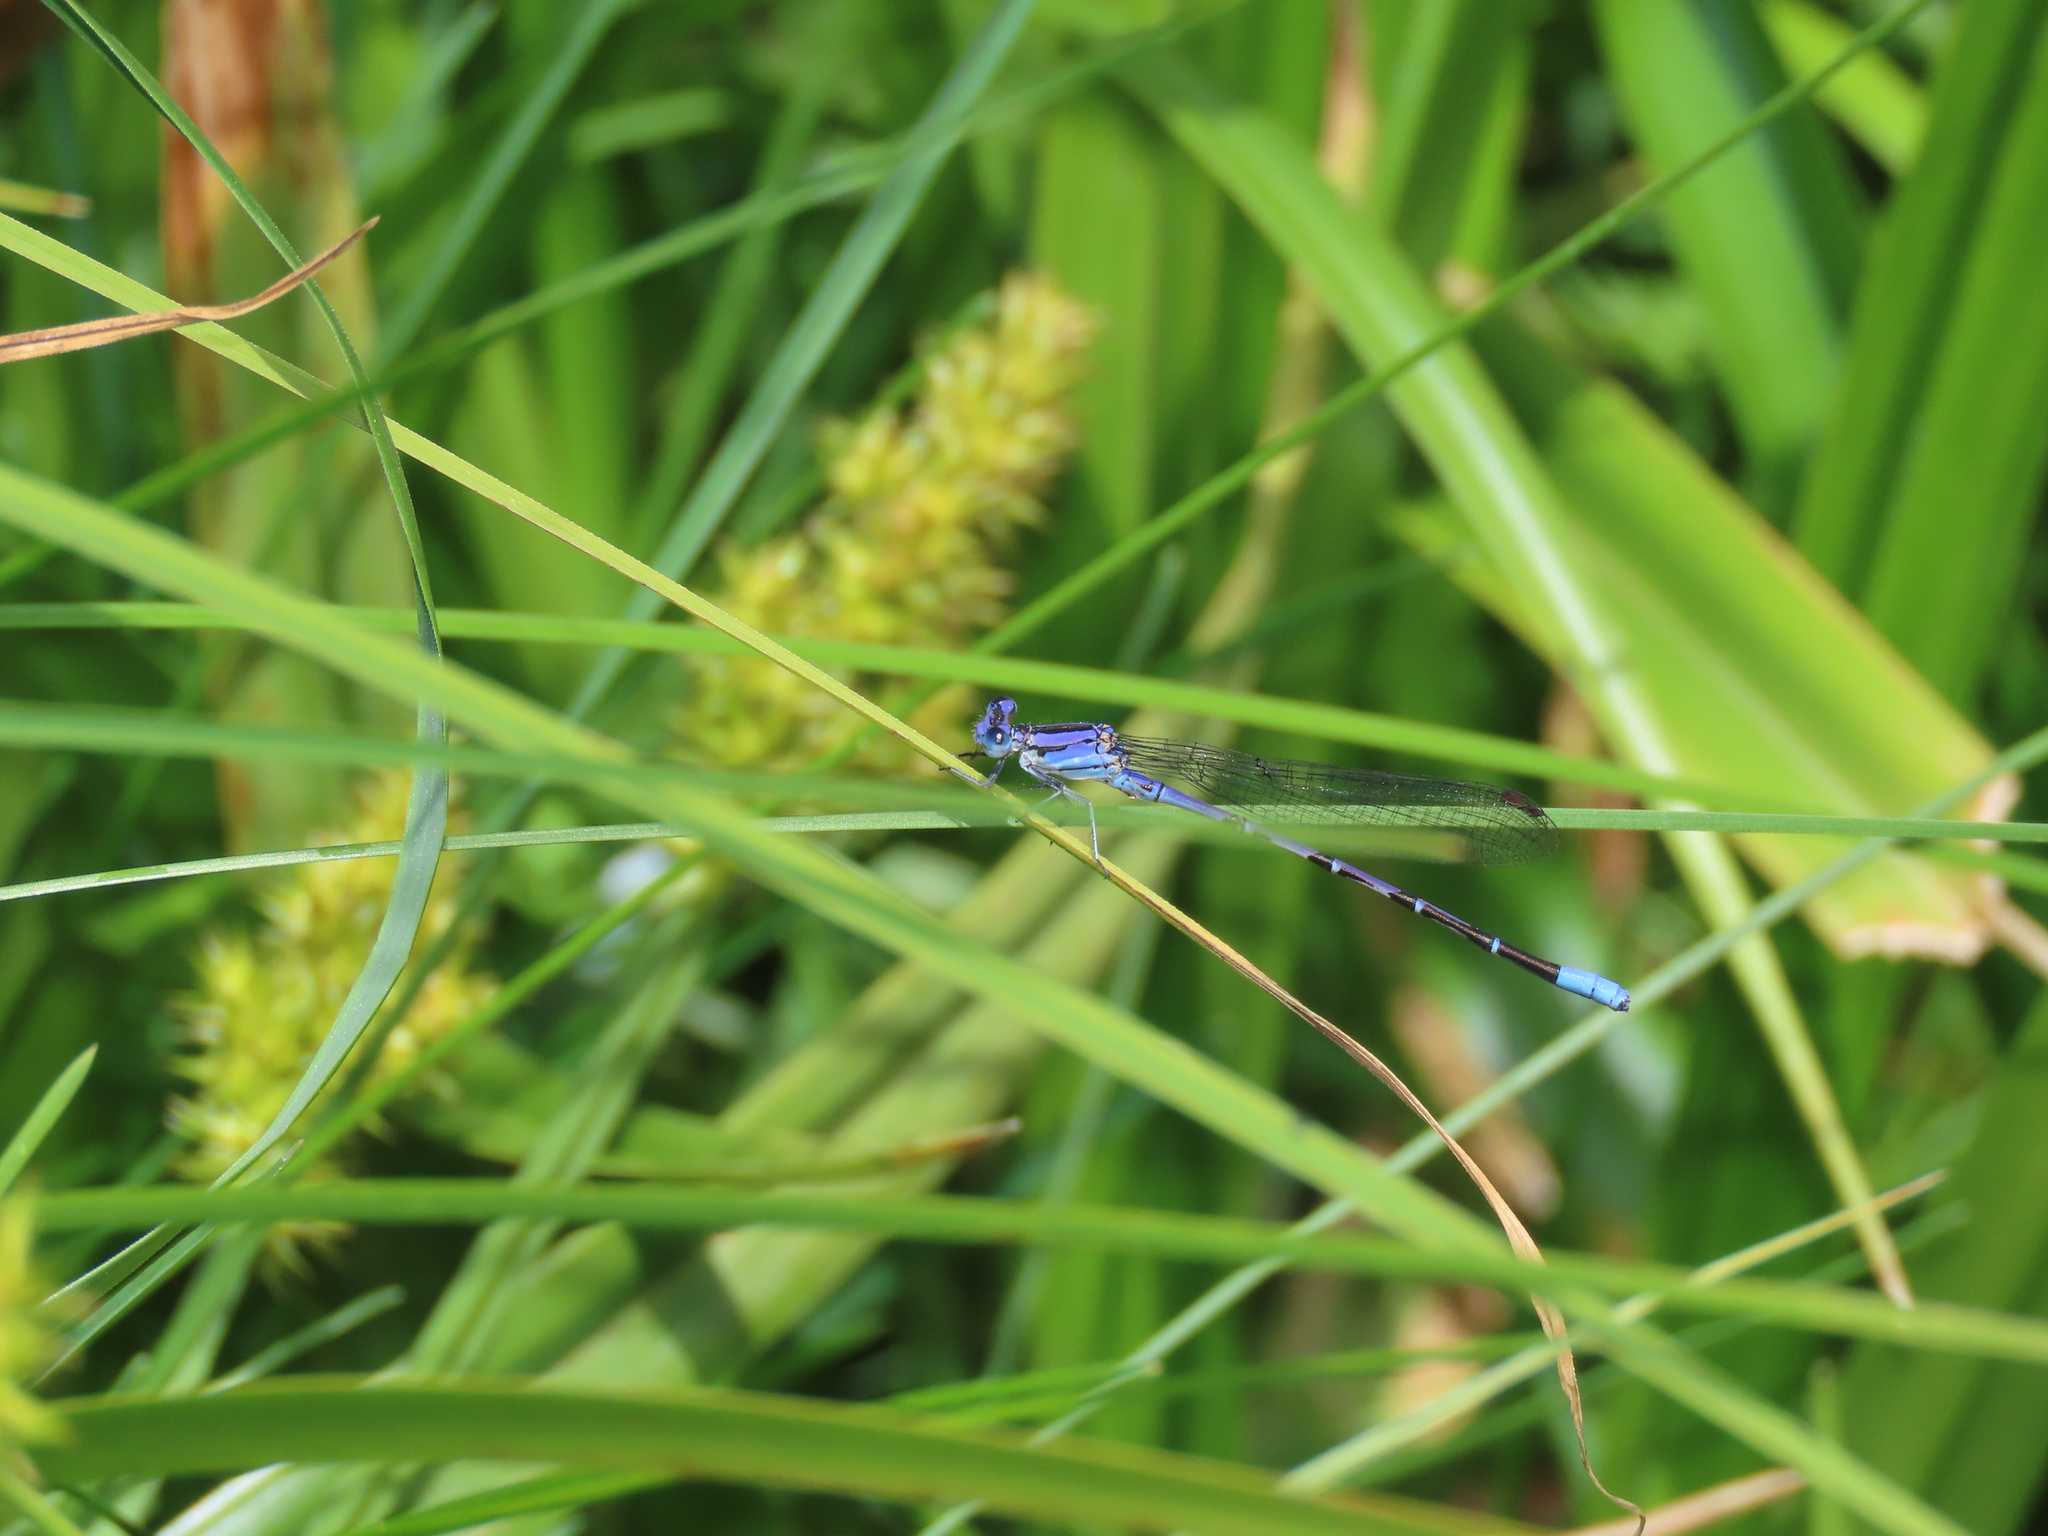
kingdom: Animalia
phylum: Arthropoda
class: Insecta
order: Odonata
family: Coenagrionidae
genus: Argia
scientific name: Argia funebris
